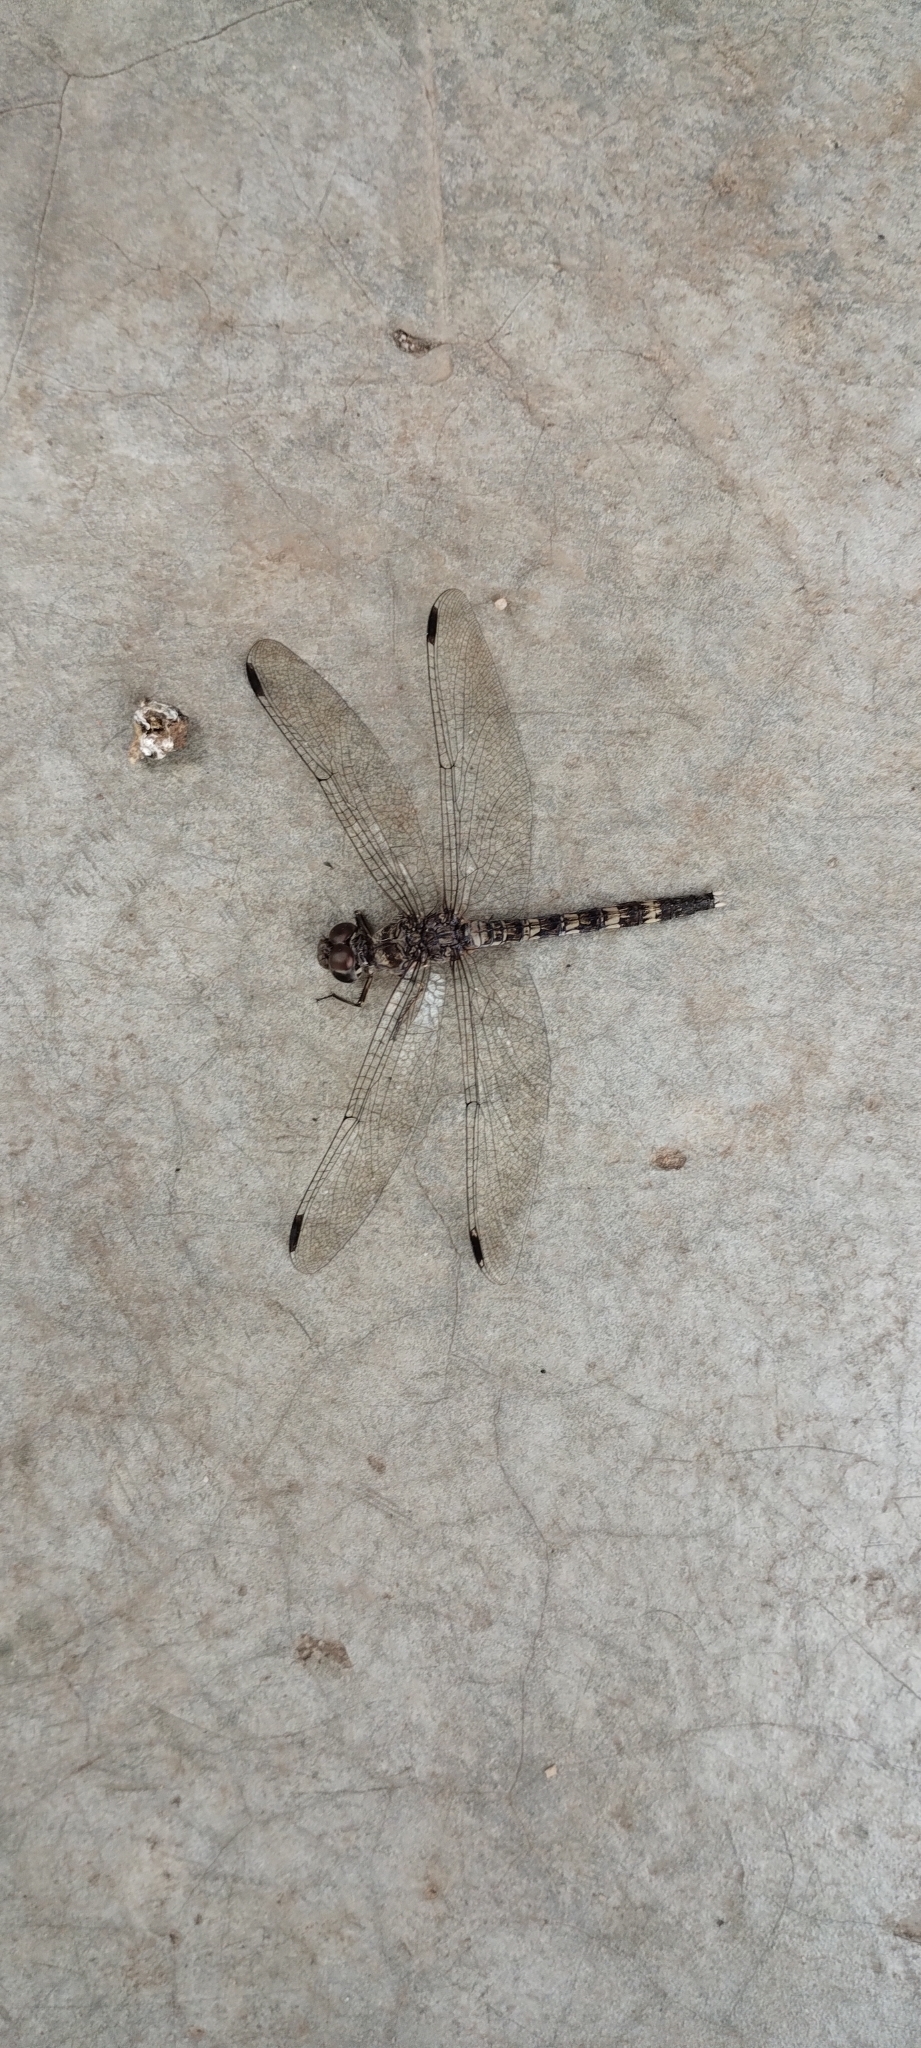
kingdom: Animalia
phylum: Arthropoda
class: Insecta
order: Odonata
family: Libellulidae
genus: Bradinopyga
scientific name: Bradinopyga geminata
